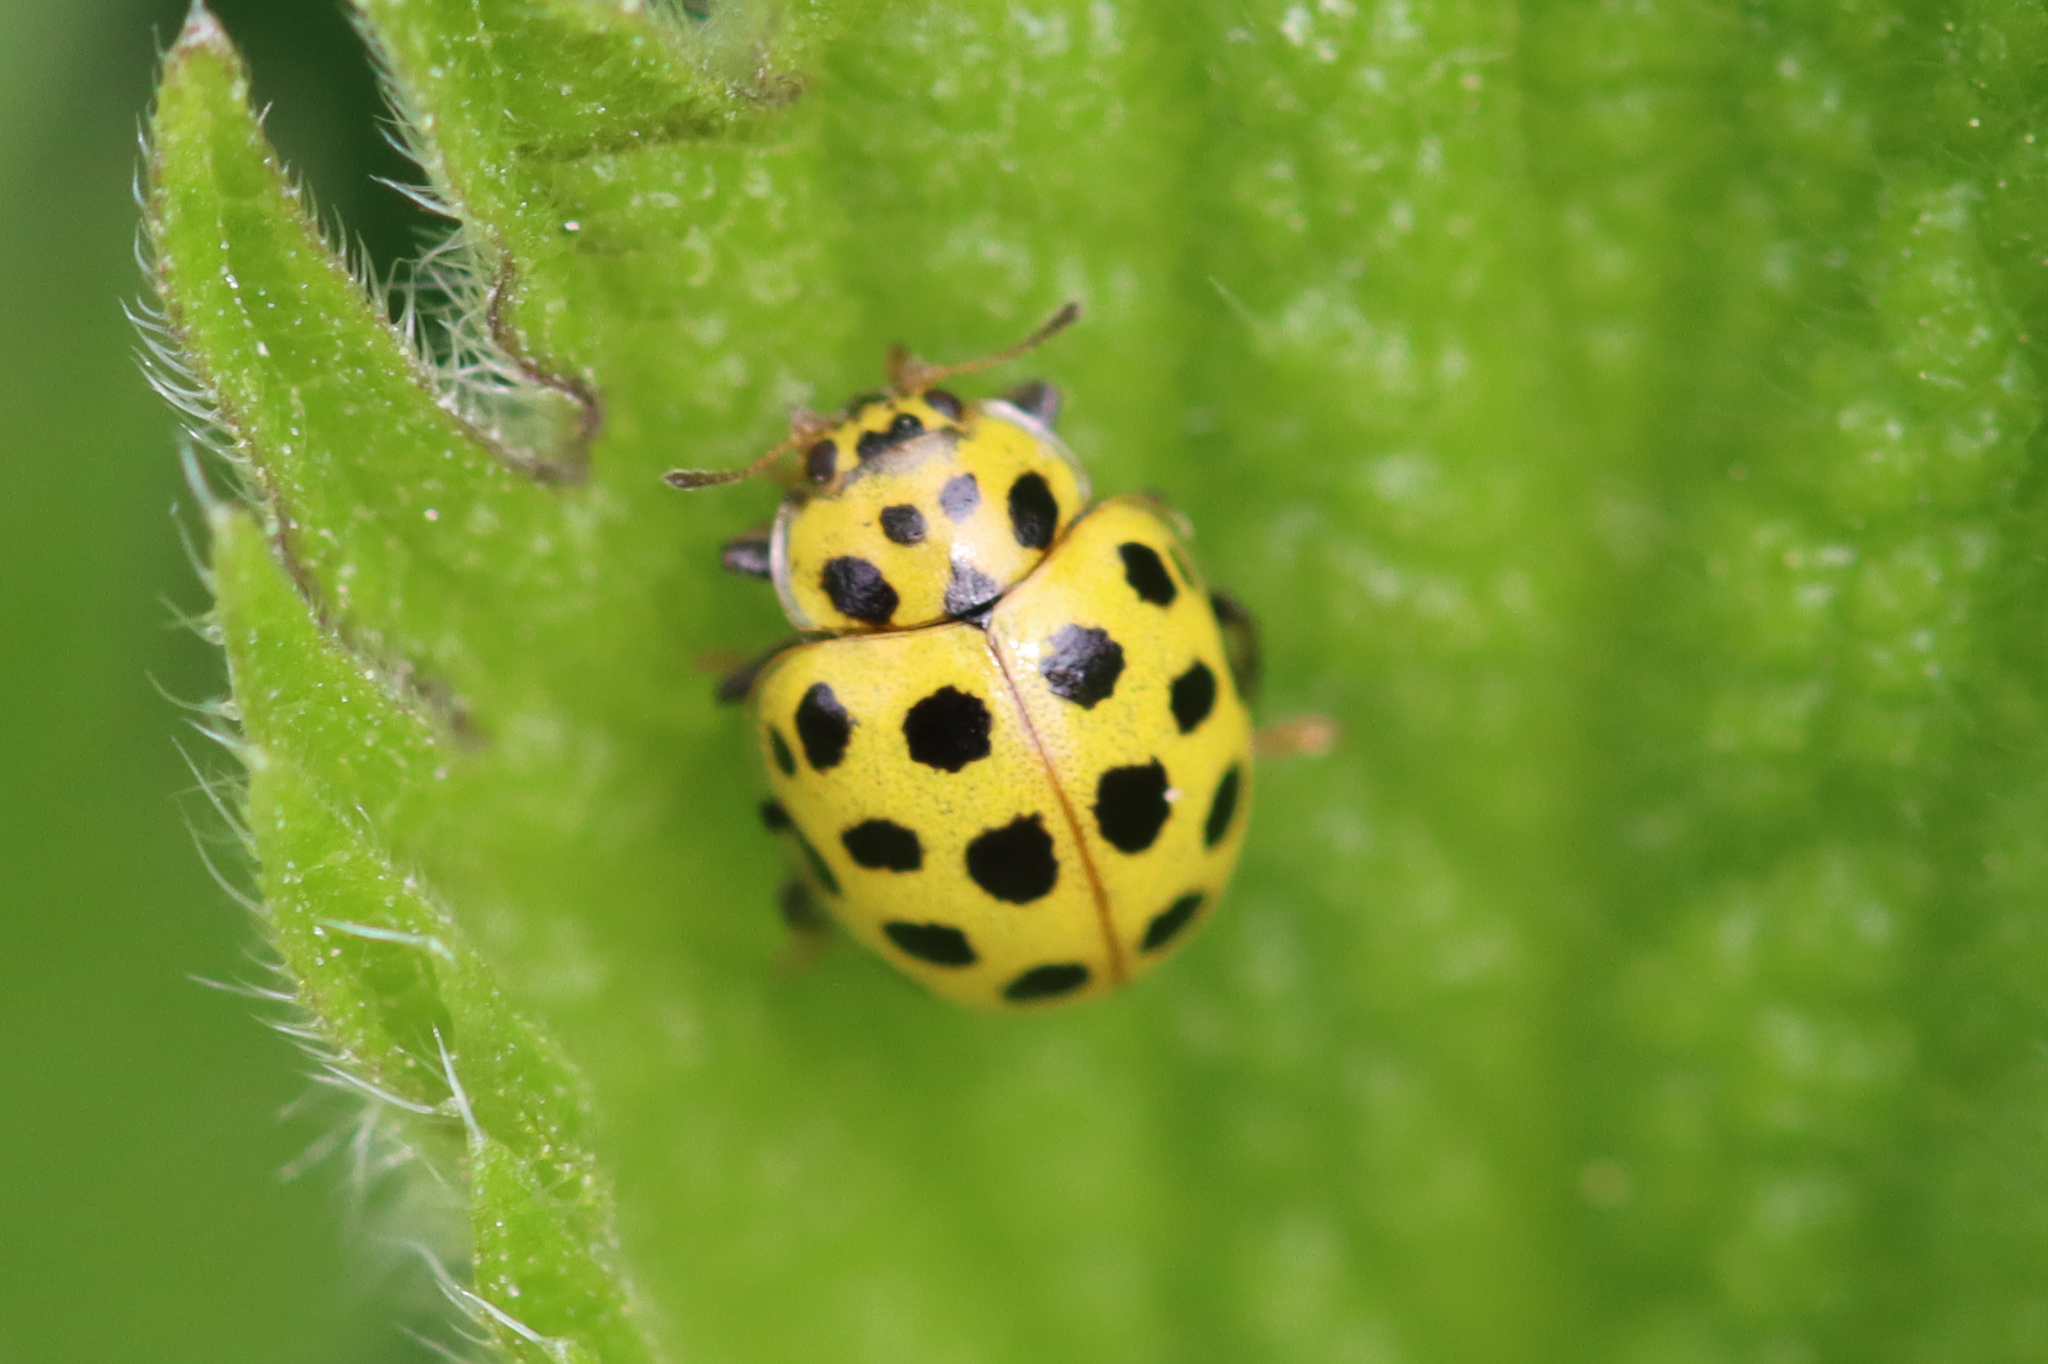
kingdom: Animalia
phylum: Arthropoda
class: Insecta
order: Coleoptera
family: Coccinellidae
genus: Psyllobora
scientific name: Psyllobora vigintiduopunctata
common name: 22-spot ladybird
